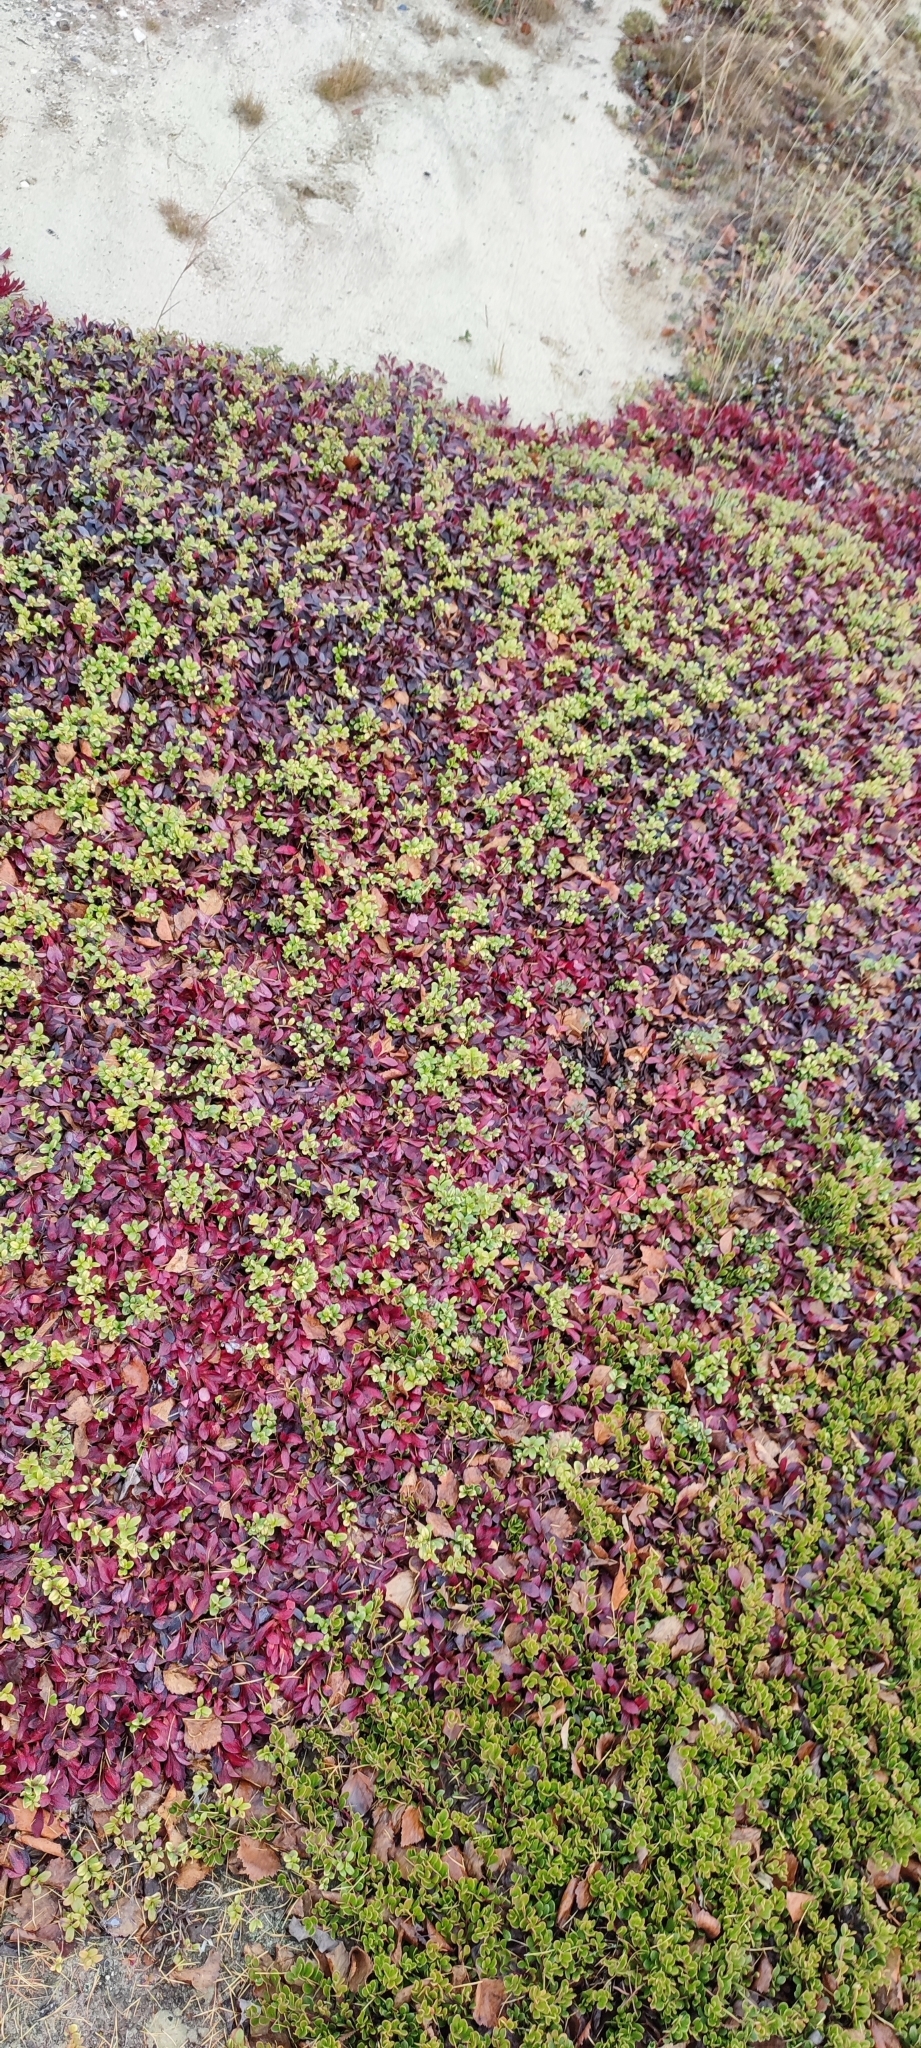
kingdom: Plantae
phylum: Tracheophyta
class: Magnoliopsida
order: Ericales
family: Ericaceae
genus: Arctostaphylos
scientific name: Arctostaphylos alpinus
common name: Alpine bearberry
